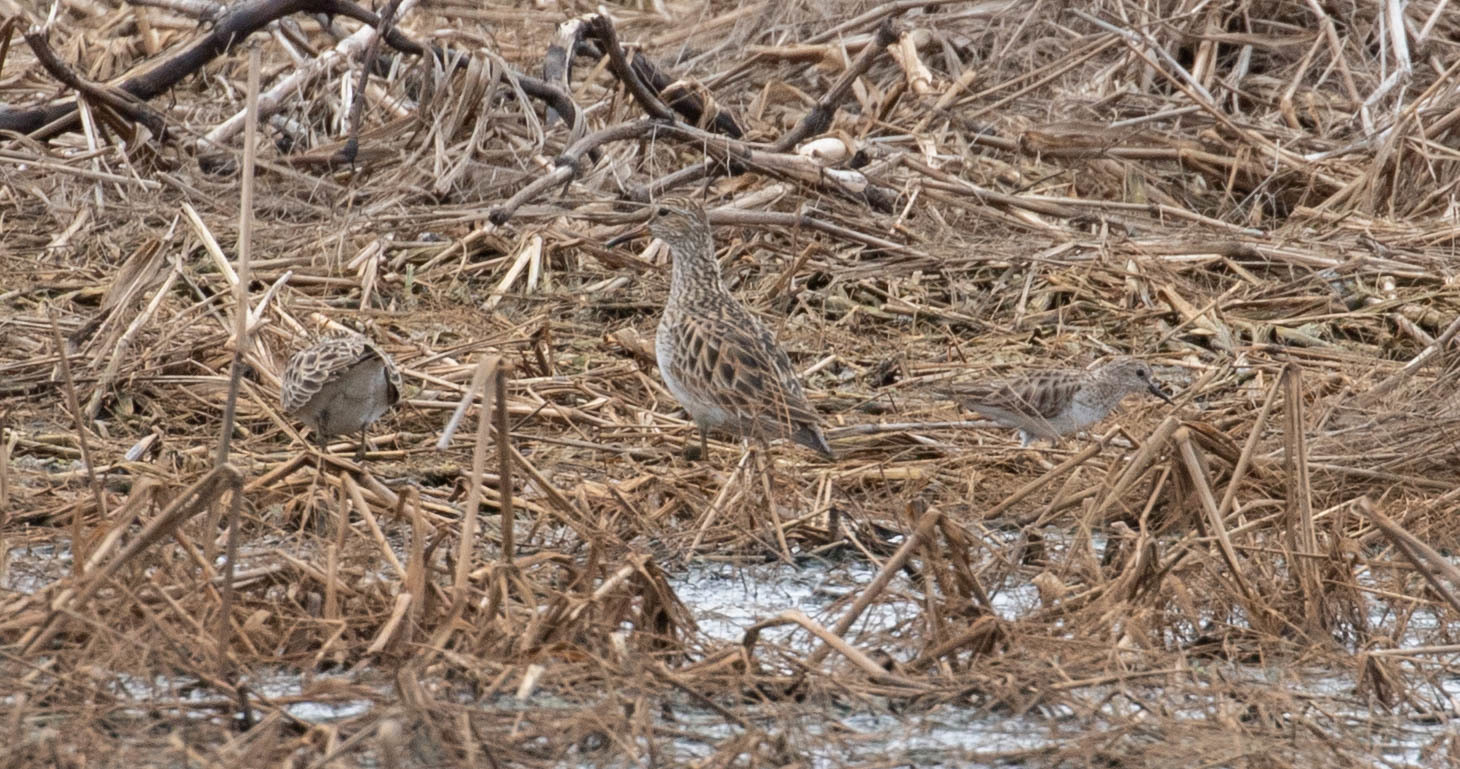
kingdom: Animalia
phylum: Chordata
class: Aves
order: Charadriiformes
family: Scolopacidae
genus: Calidris
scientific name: Calidris minutilla
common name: Least sandpiper
